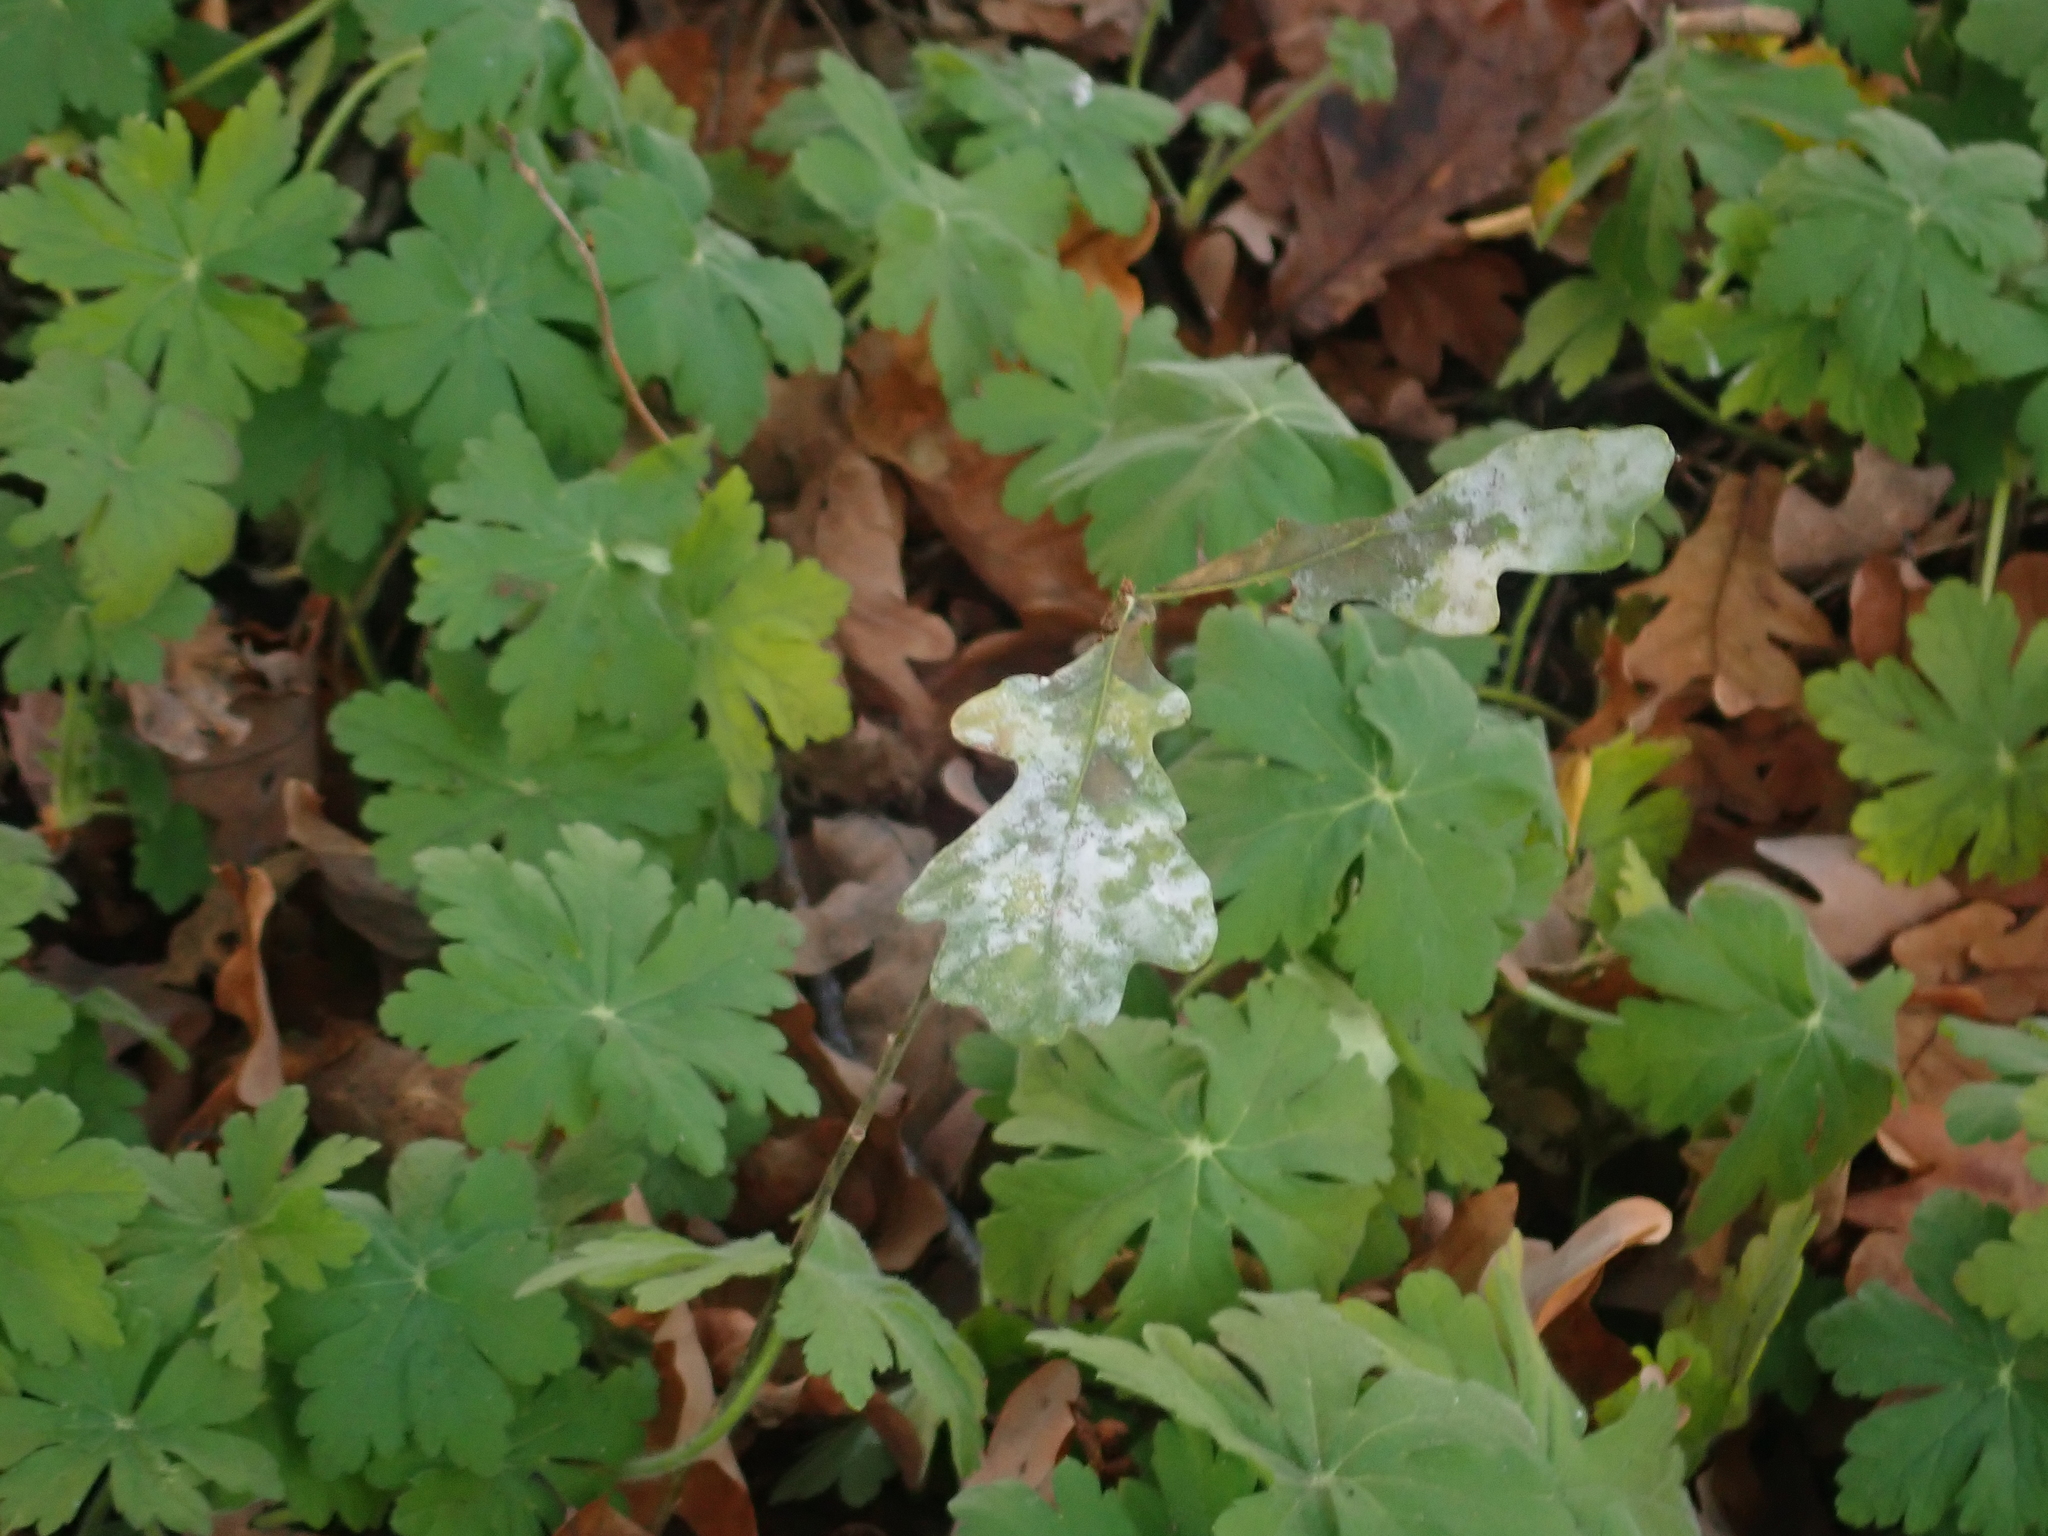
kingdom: Fungi
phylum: Ascomycota
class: Leotiomycetes
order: Helotiales
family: Erysiphaceae
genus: Erysiphe
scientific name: Erysiphe
